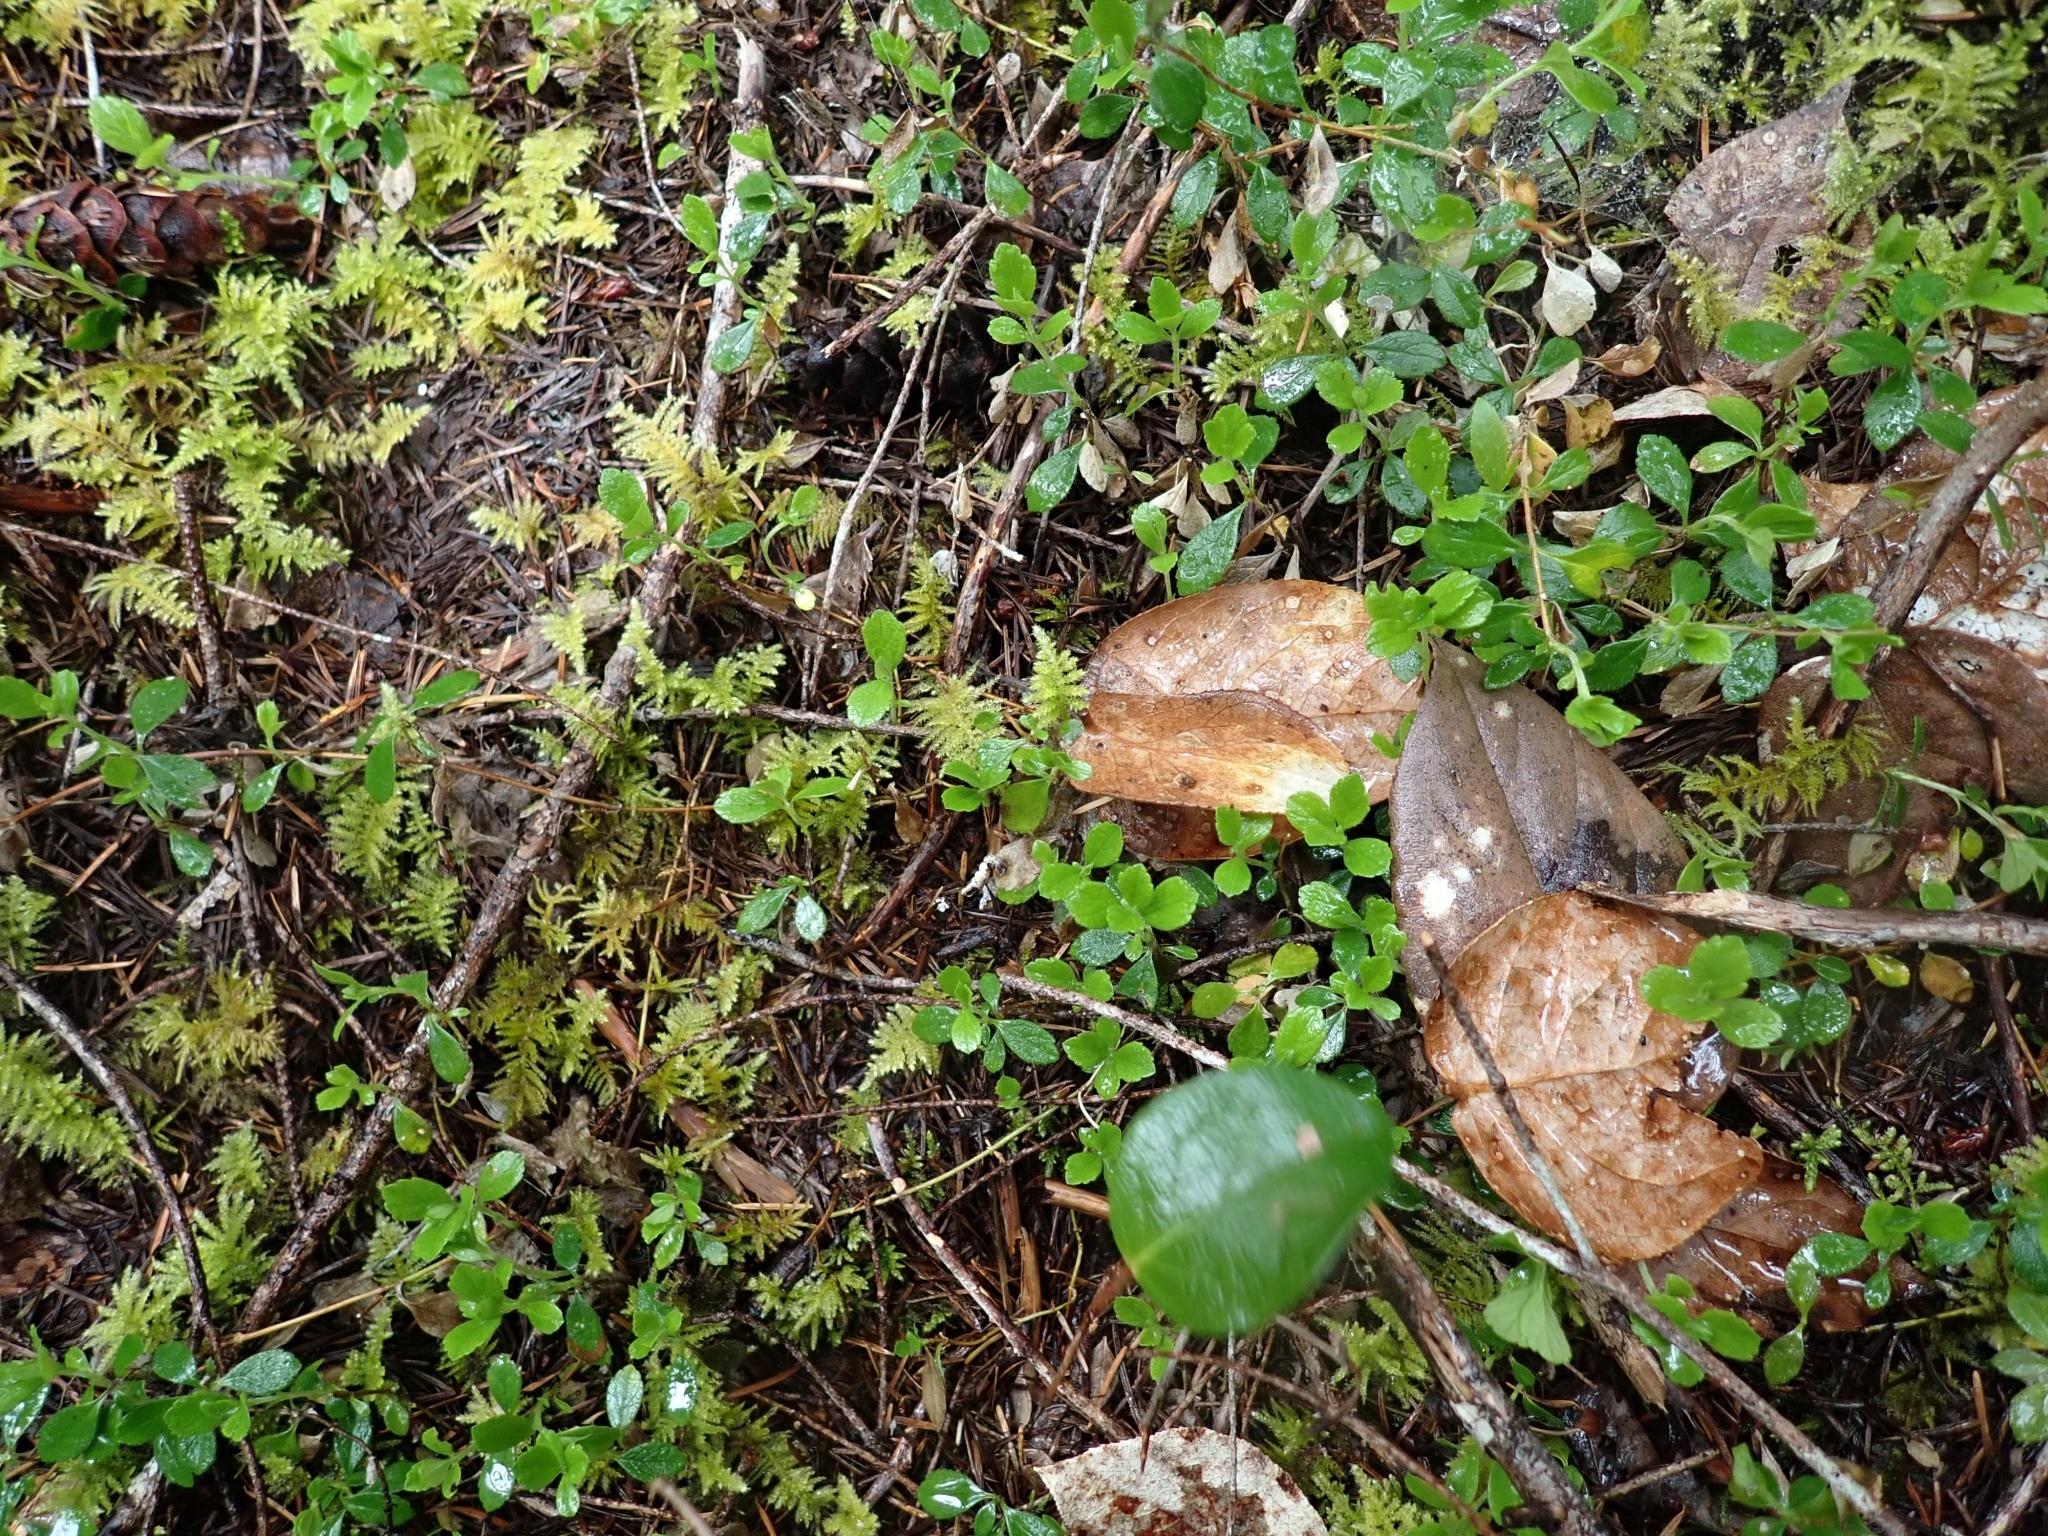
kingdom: Plantae
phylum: Tracheophyta
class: Magnoliopsida
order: Dipsacales
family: Caprifoliaceae
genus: Linnaea
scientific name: Linnaea borealis
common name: Twinflower
